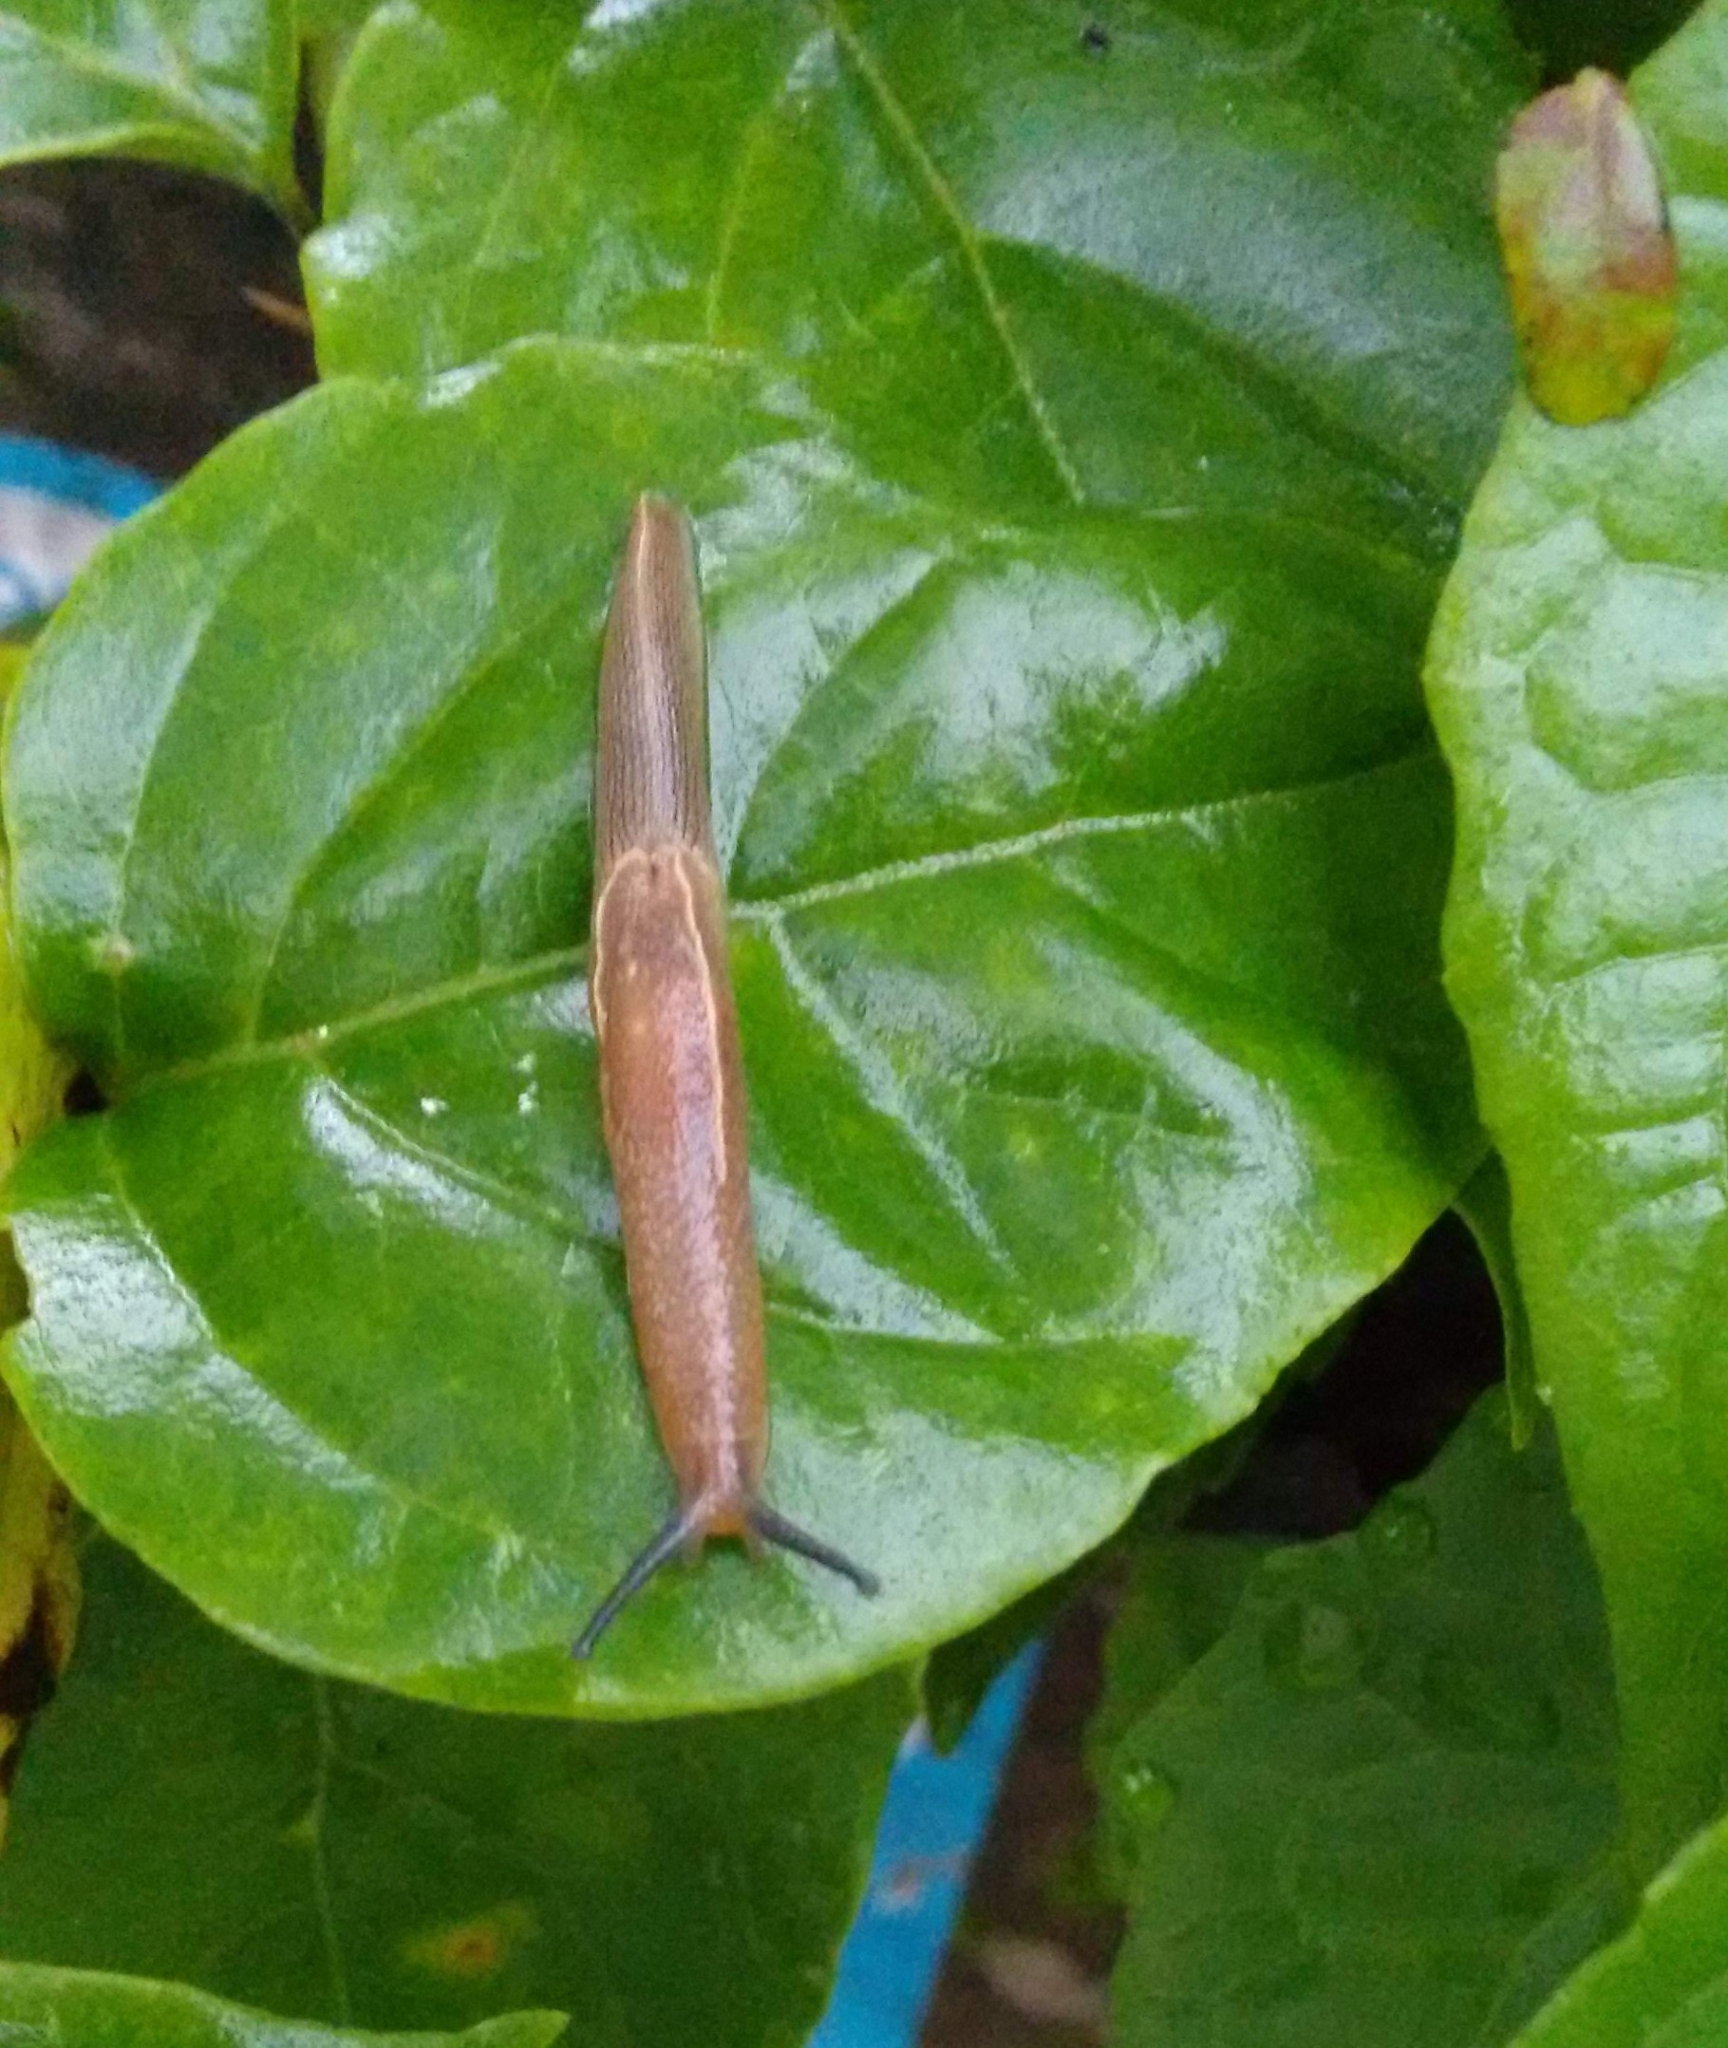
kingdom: Animalia
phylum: Mollusca
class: Gastropoda
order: Stylommatophora
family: Ariophantidae
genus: Mariaella
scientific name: Mariaella dussumieri
